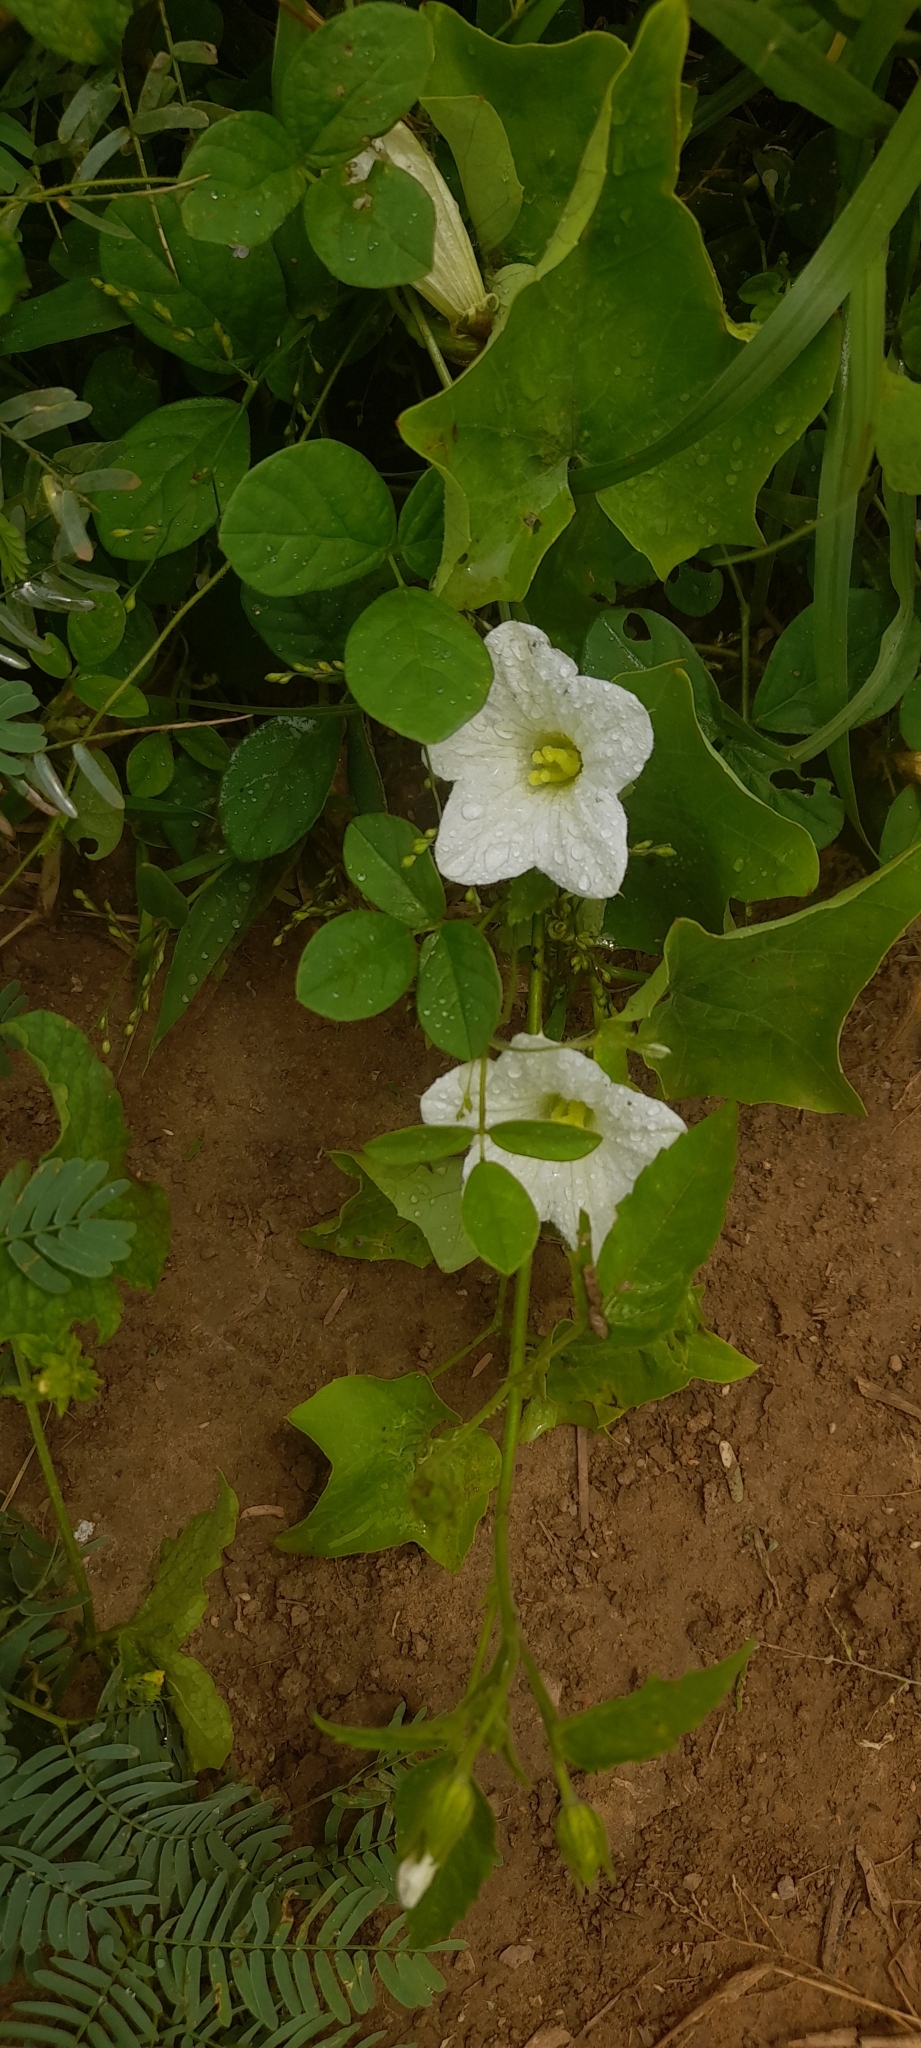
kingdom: Plantae
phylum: Tracheophyta
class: Magnoliopsida
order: Cucurbitales
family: Cucurbitaceae
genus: Coccinia
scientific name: Coccinia grandis
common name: Ivy gourd
